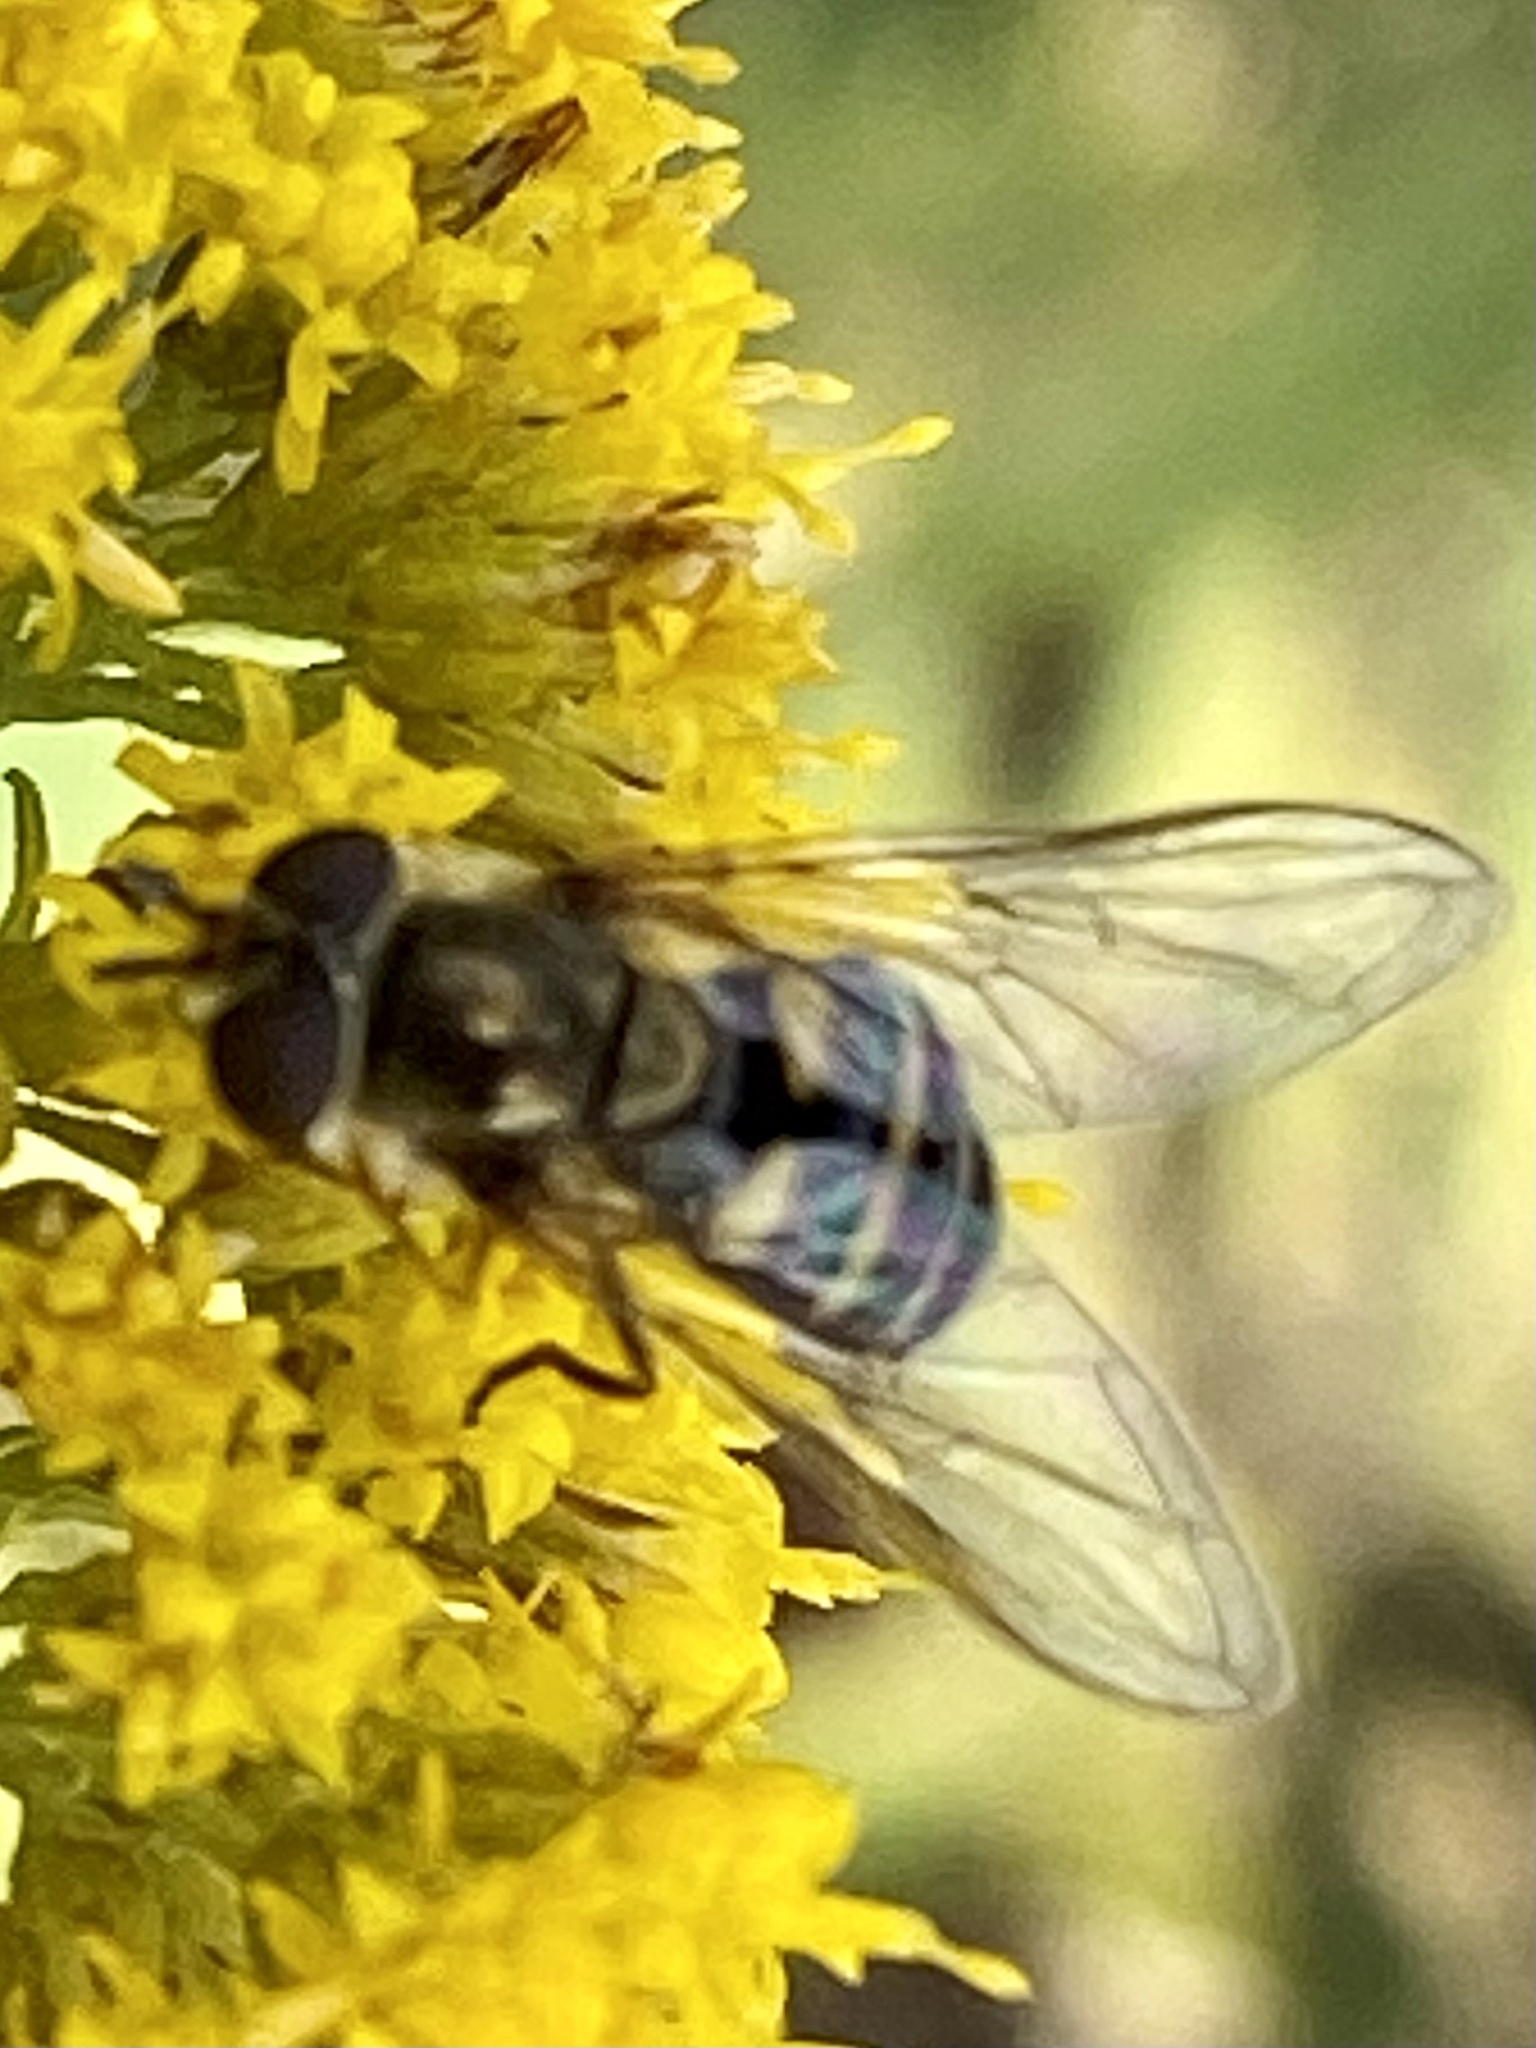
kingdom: Animalia
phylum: Arthropoda
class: Insecta
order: Diptera
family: Syrphidae
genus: Eupeodes
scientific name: Eupeodes
